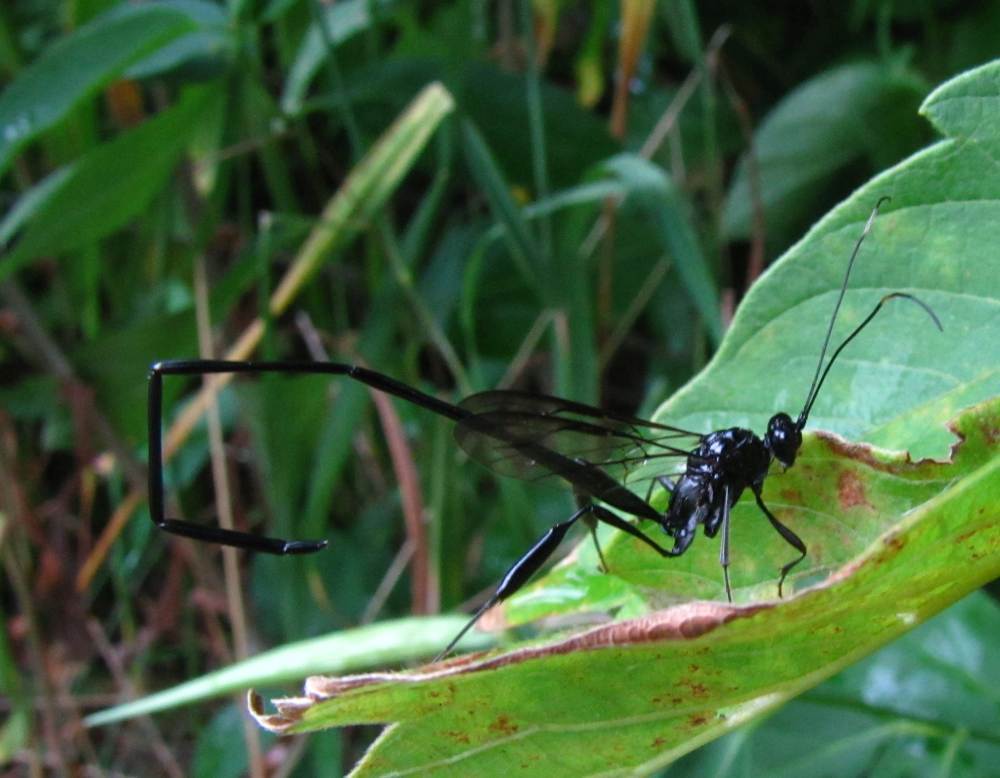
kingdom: Animalia
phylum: Arthropoda
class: Insecta
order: Hymenoptera
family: Pelecinidae
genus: Pelecinus
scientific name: Pelecinus polyturator
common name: American pelecinid wasp
